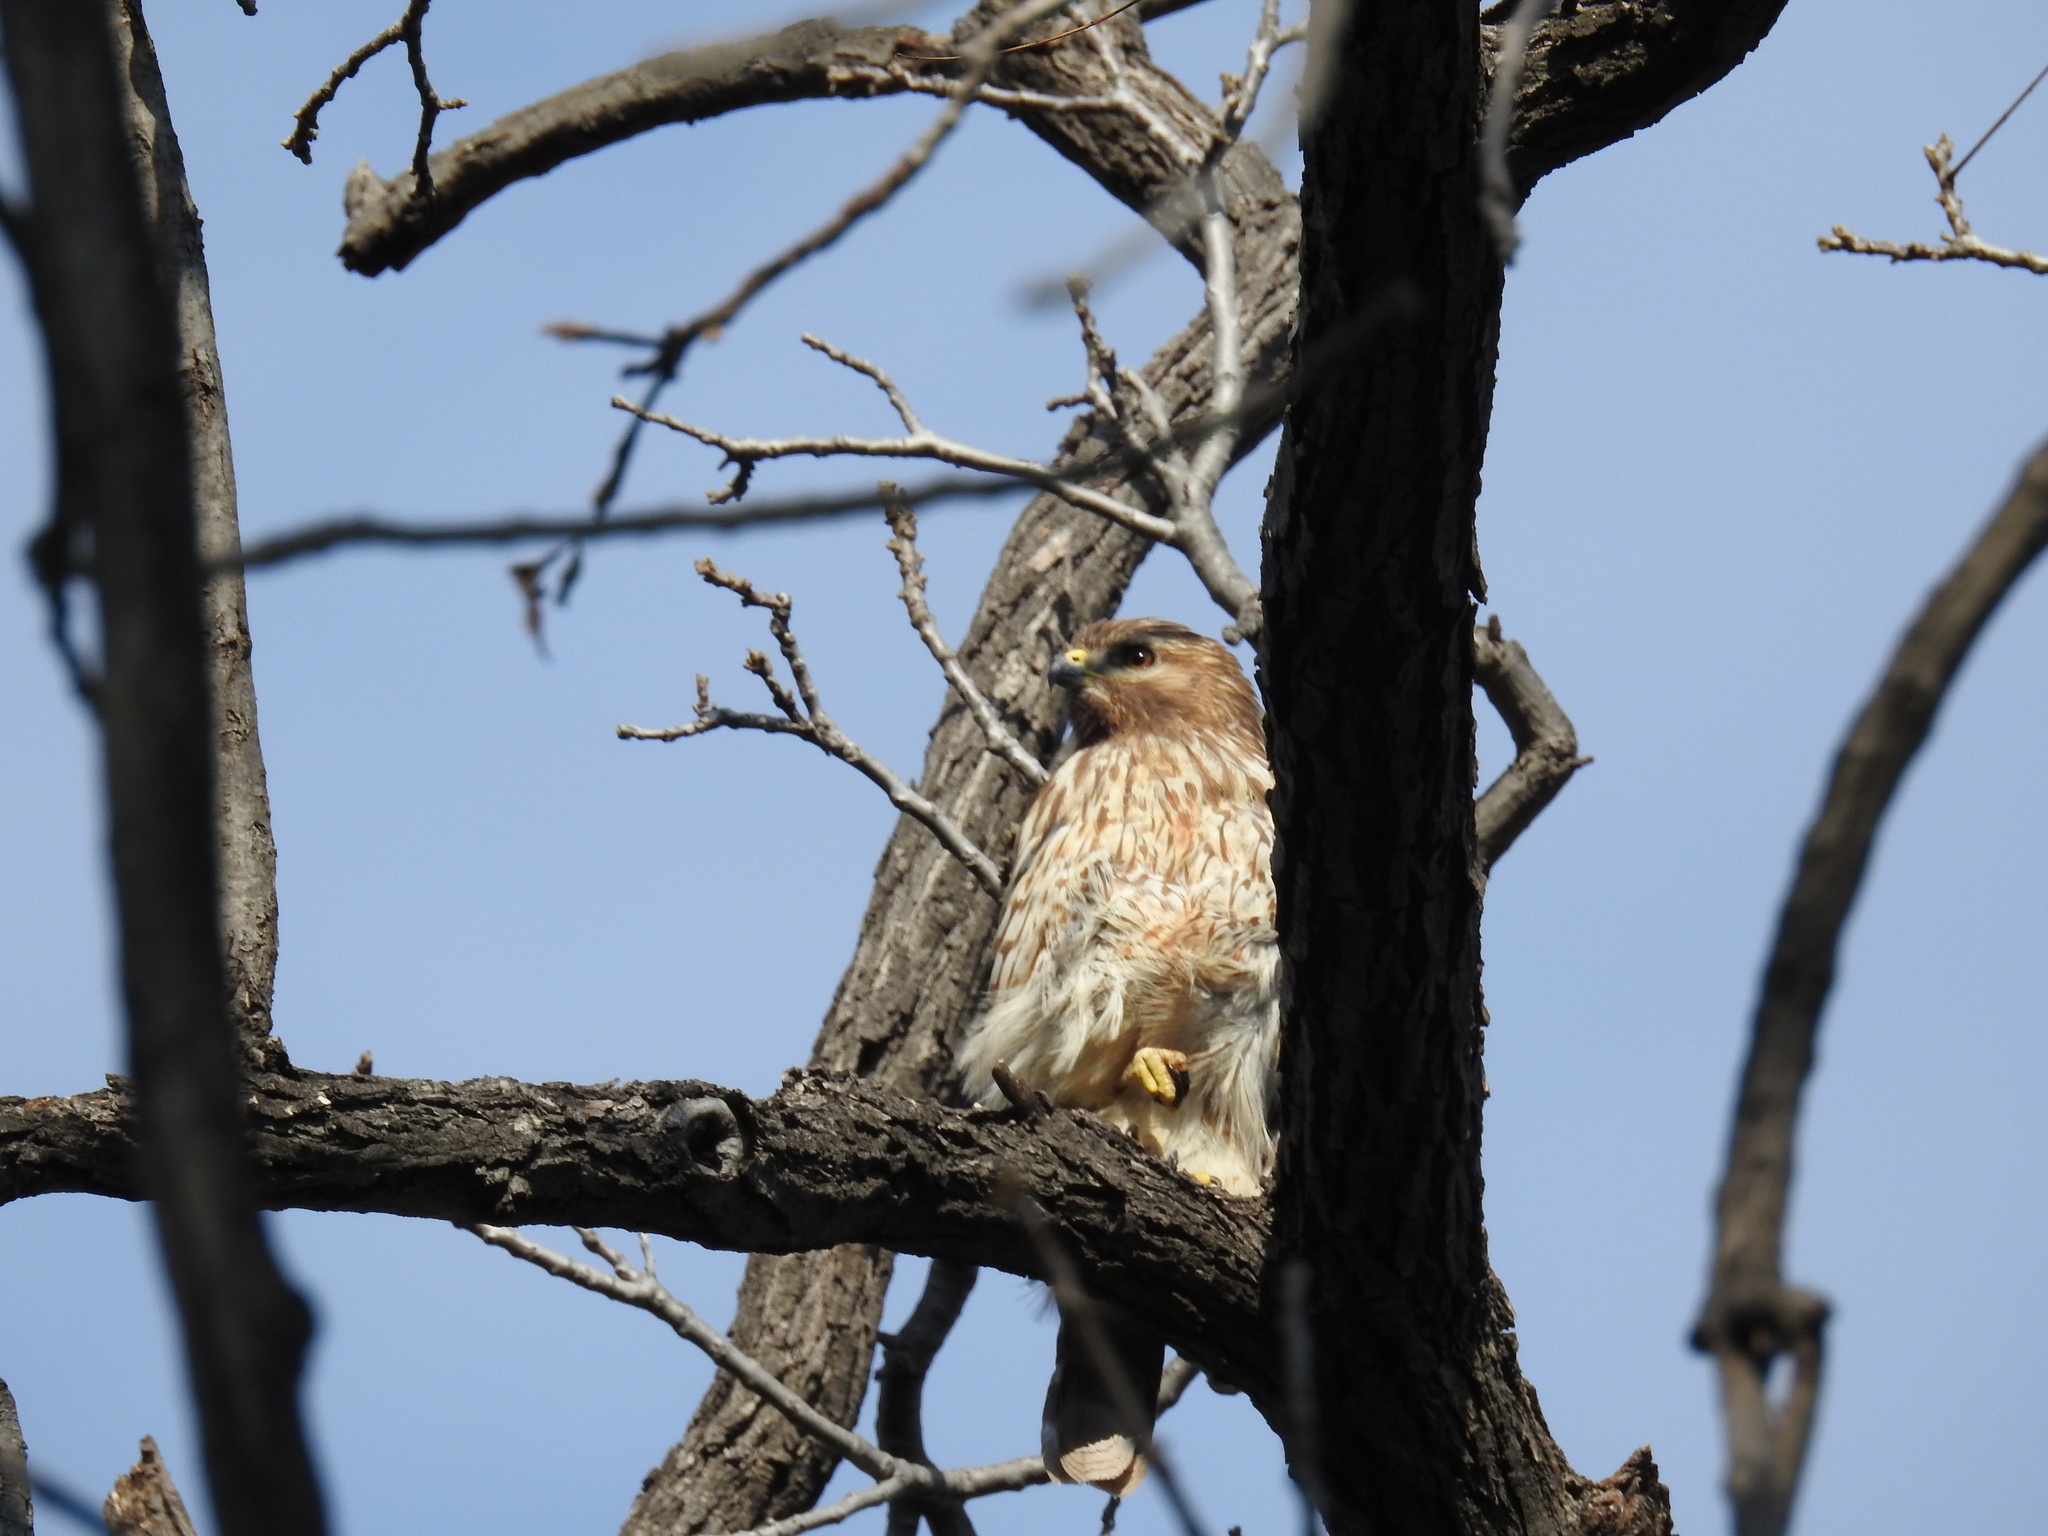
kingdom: Animalia
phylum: Chordata
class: Aves
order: Accipitriformes
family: Accipitridae
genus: Buteo
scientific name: Buteo lineatus
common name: Red-shouldered hawk
